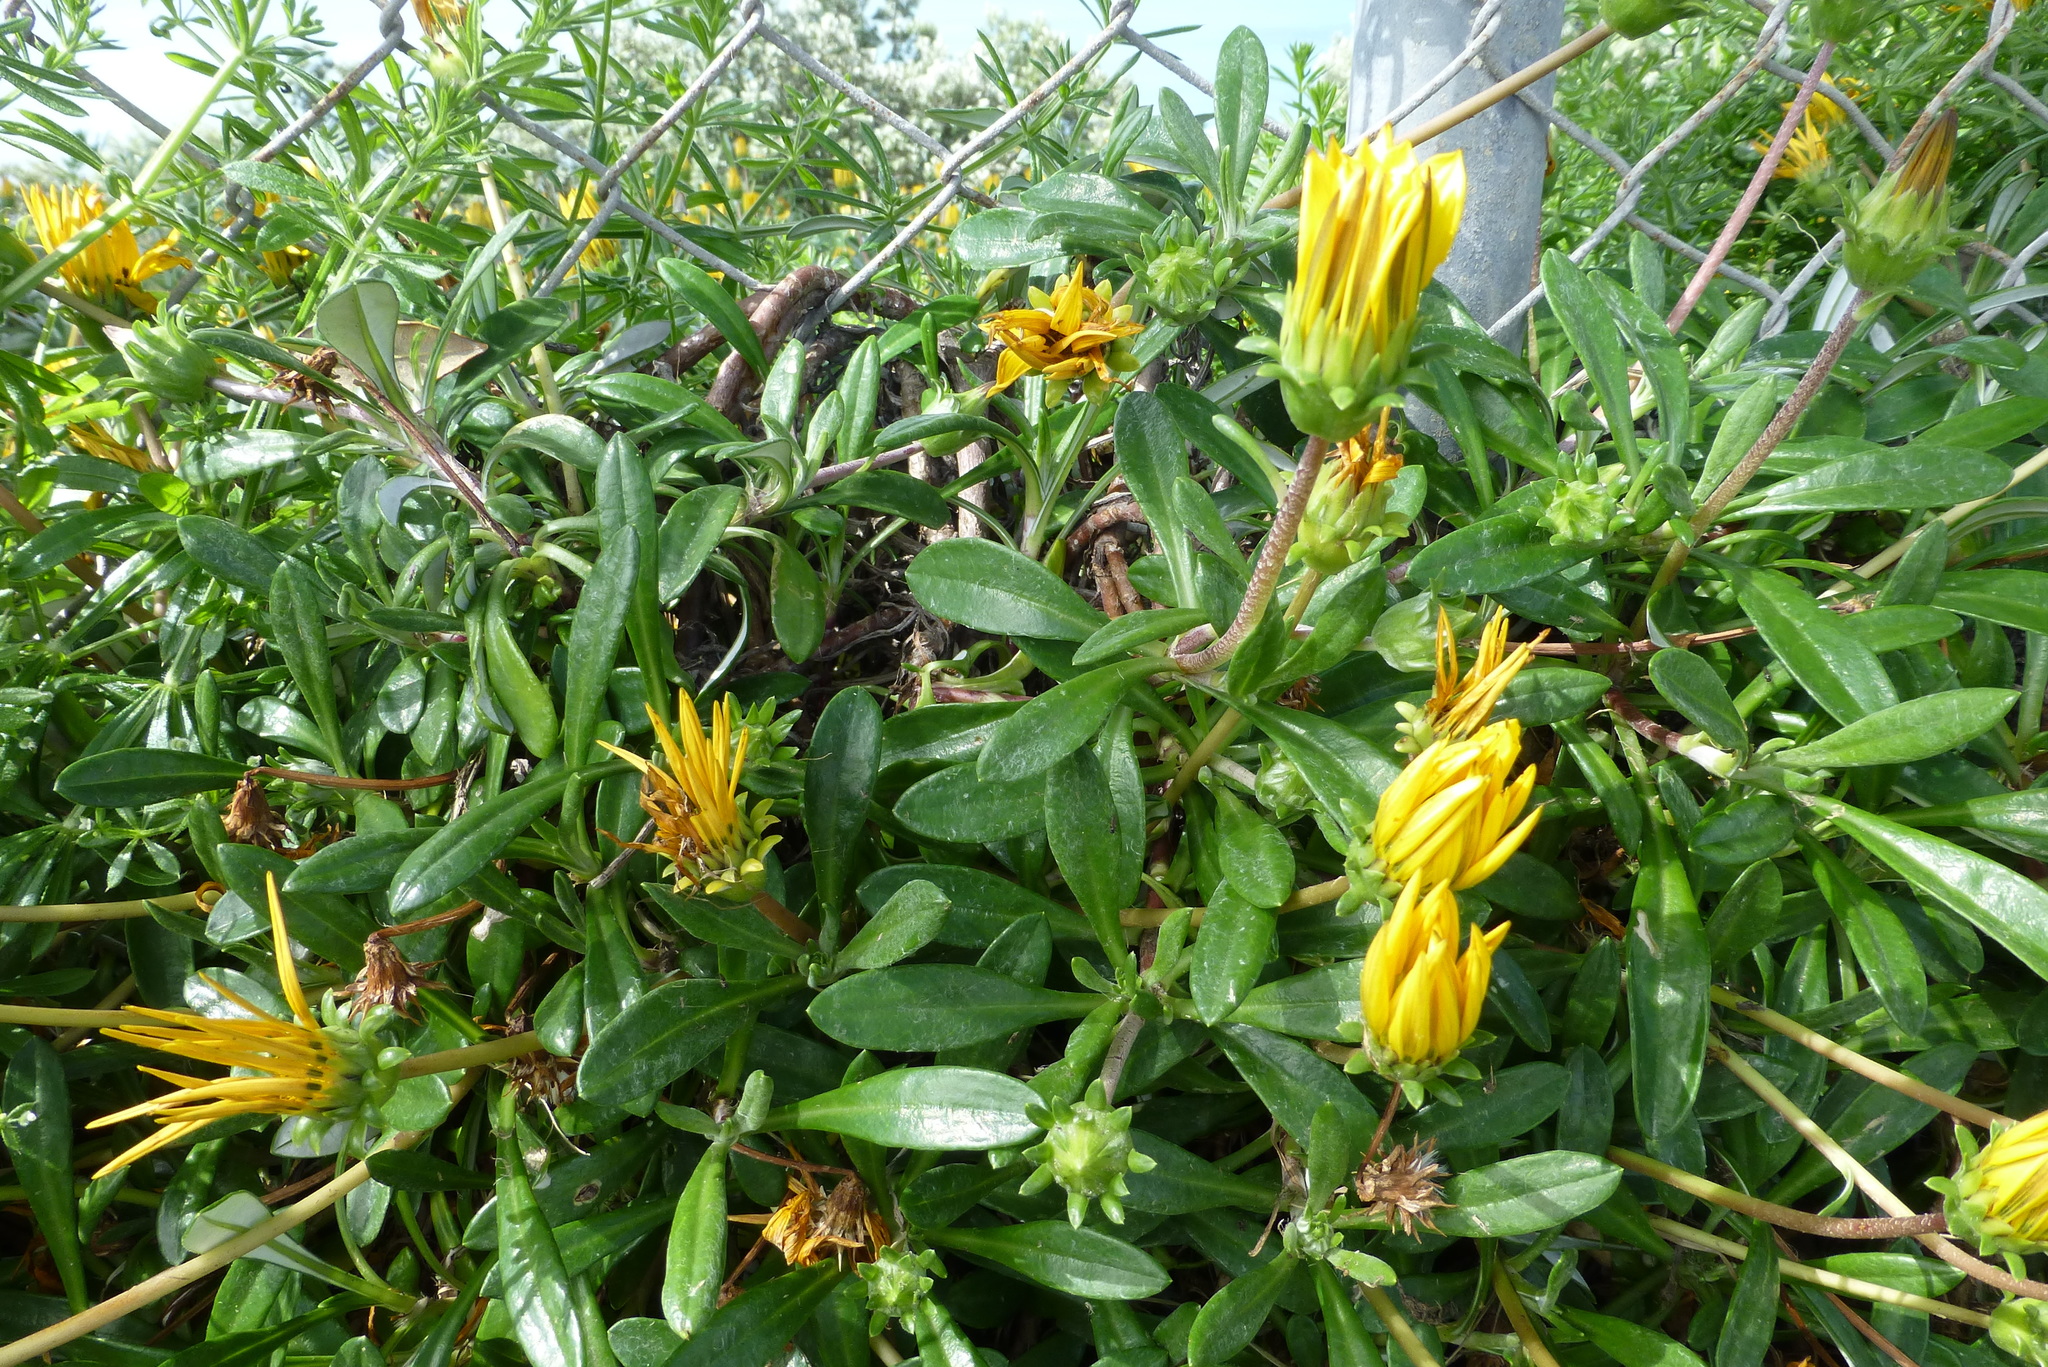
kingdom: Plantae
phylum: Tracheophyta
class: Magnoliopsida
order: Asterales
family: Asteraceae
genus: Gazania
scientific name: Gazania rigens
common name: Treasureflower
